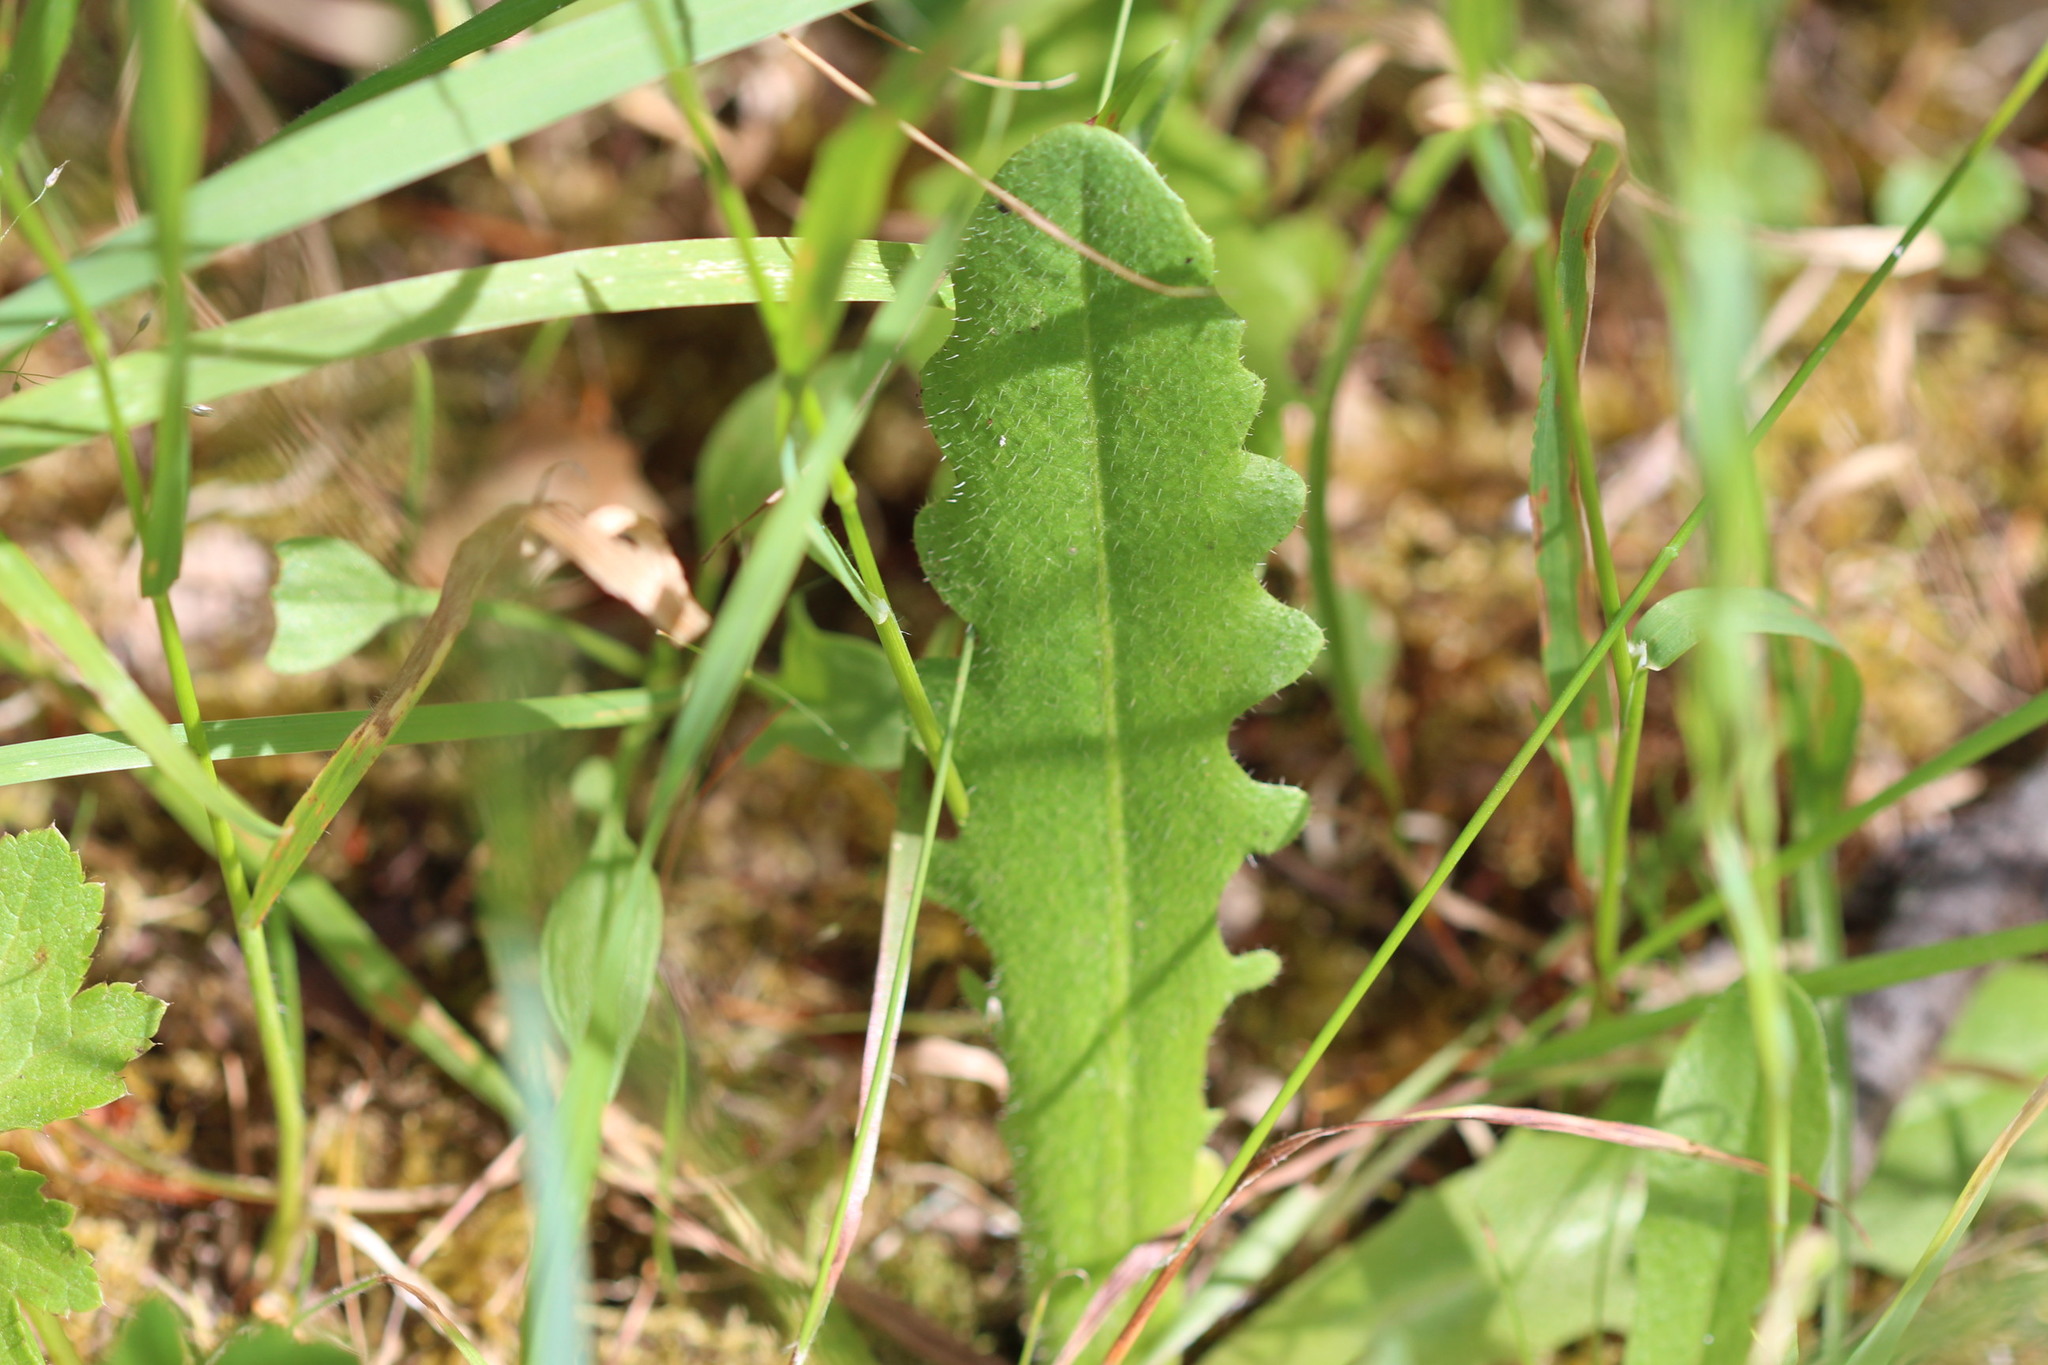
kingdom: Plantae
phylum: Tracheophyta
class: Magnoliopsida
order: Asterales
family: Asteraceae
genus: Hypochaeris
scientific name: Hypochaeris radicata
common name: Flatweed
